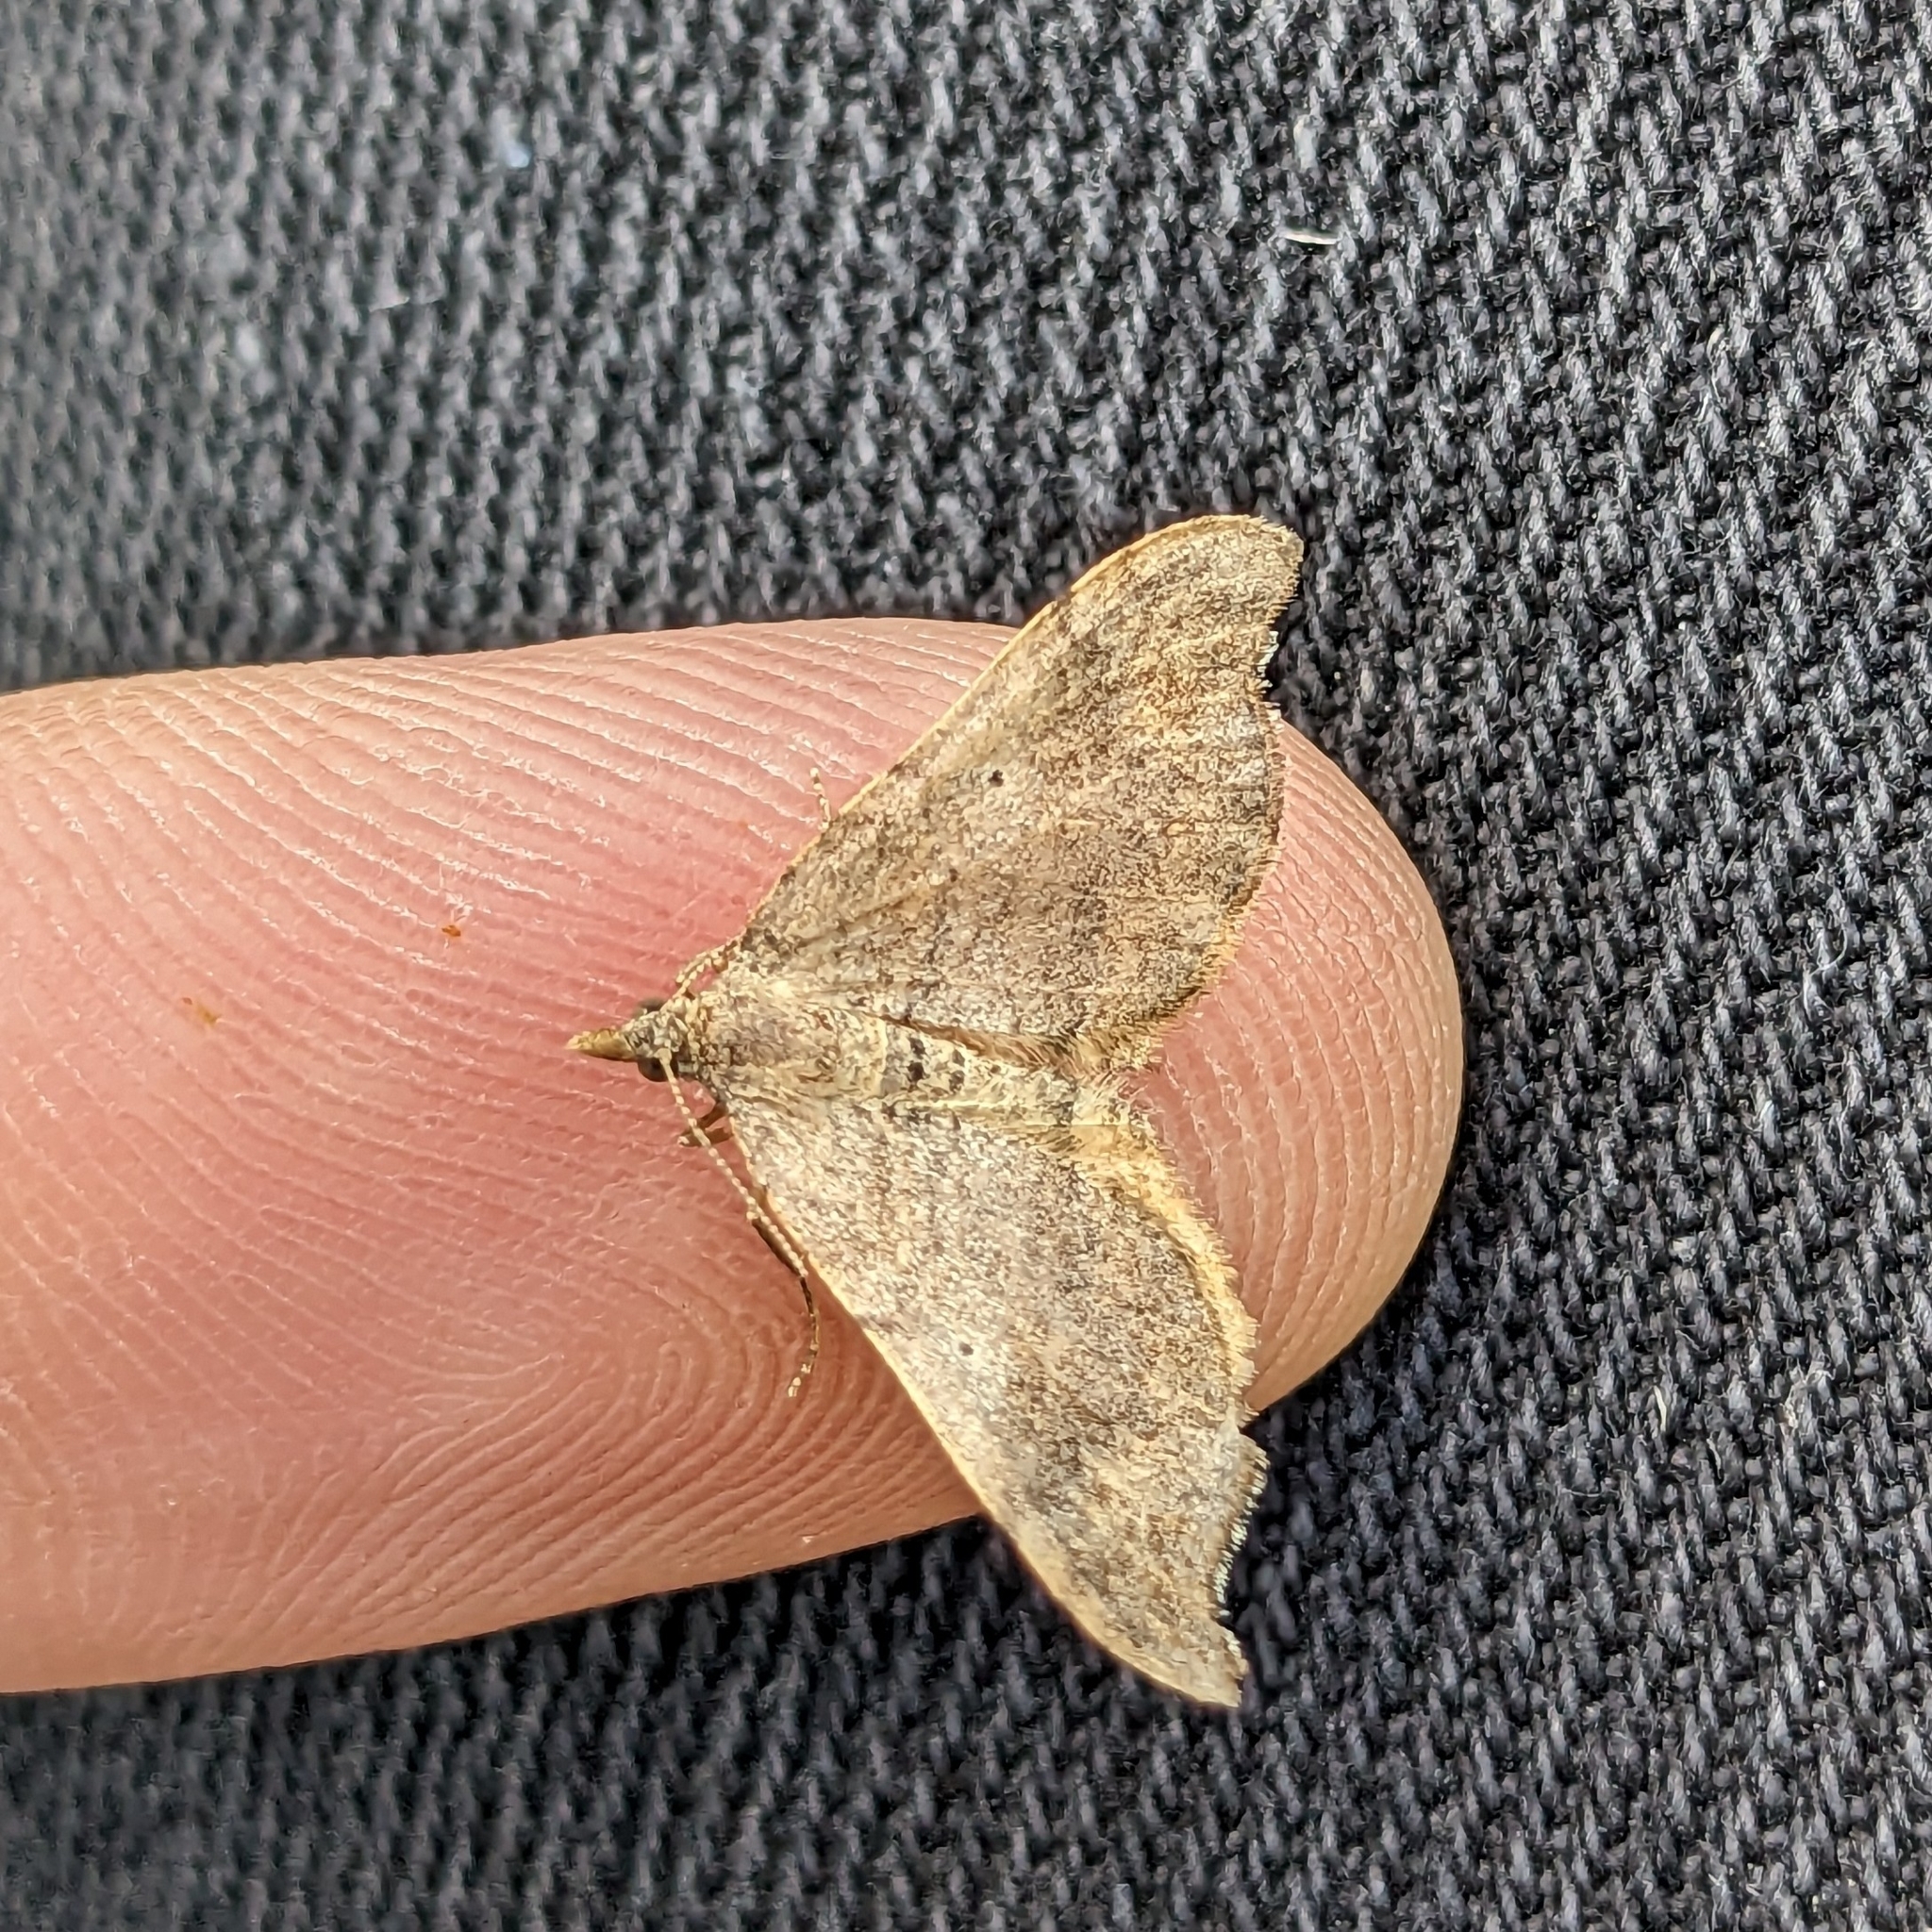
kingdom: Animalia
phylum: Arthropoda
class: Insecta
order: Lepidoptera
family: Geometridae
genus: Homodotis
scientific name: Homodotis megaspilata
